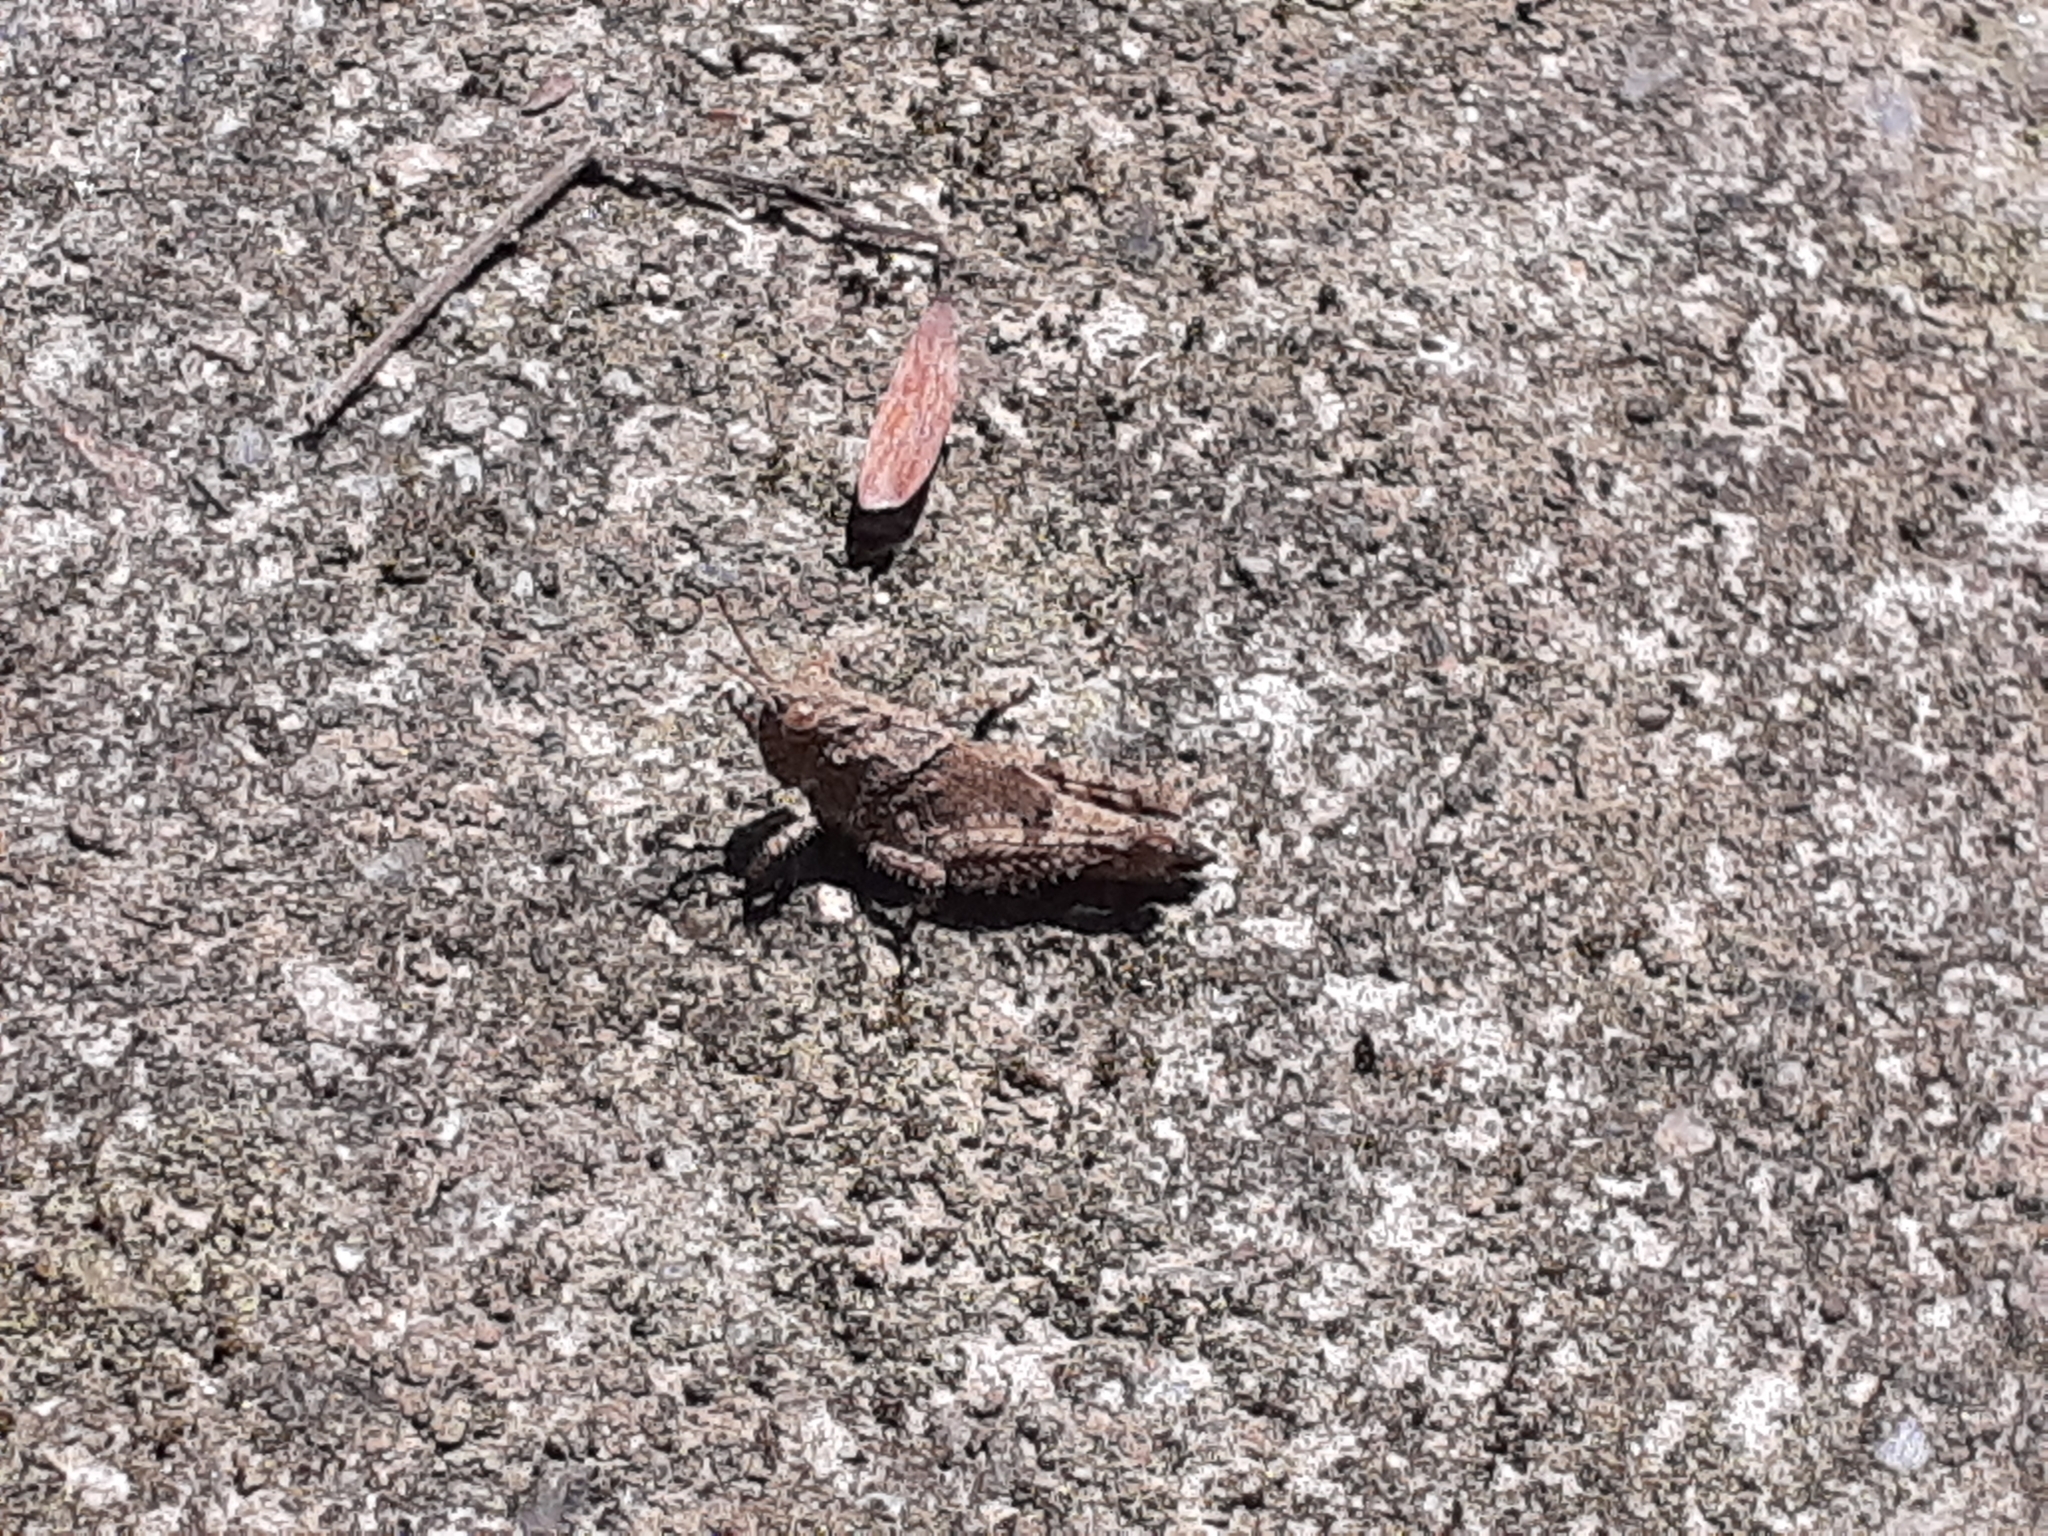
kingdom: Animalia
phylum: Arthropoda
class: Insecta
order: Orthoptera
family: Acrididae
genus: Trilophidia
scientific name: Trilophidia annulata
